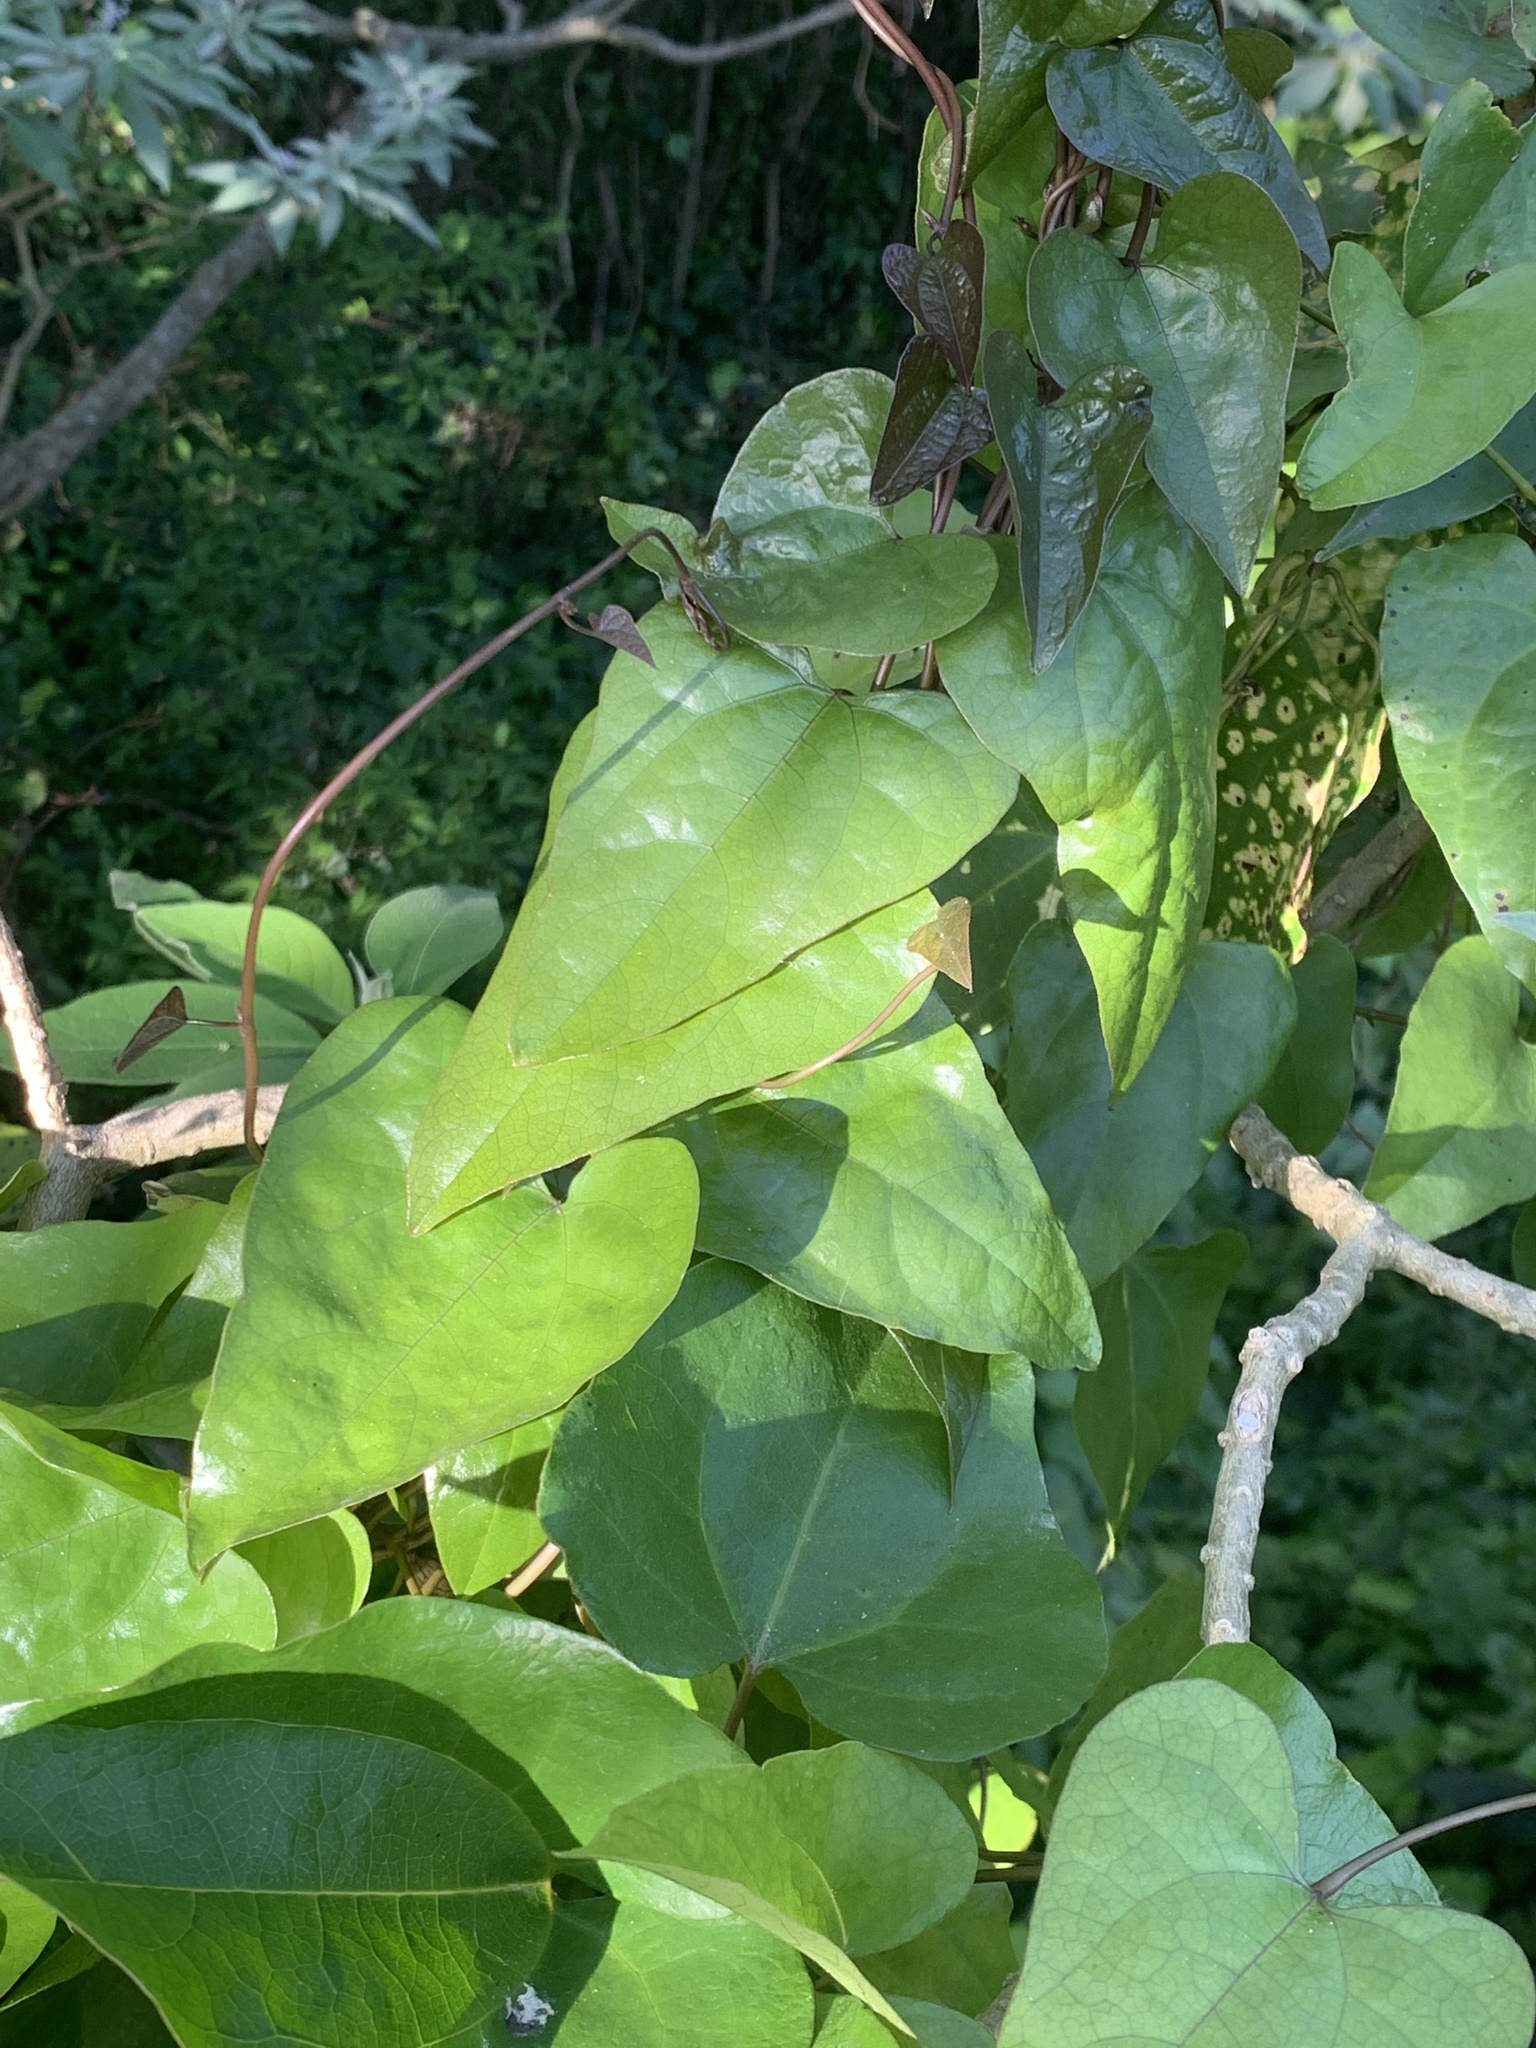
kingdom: Plantae
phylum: Tracheophyta
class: Magnoliopsida
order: Piperales
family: Aristolochiaceae
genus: Aristolochia
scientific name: Aristolochia triangularis
